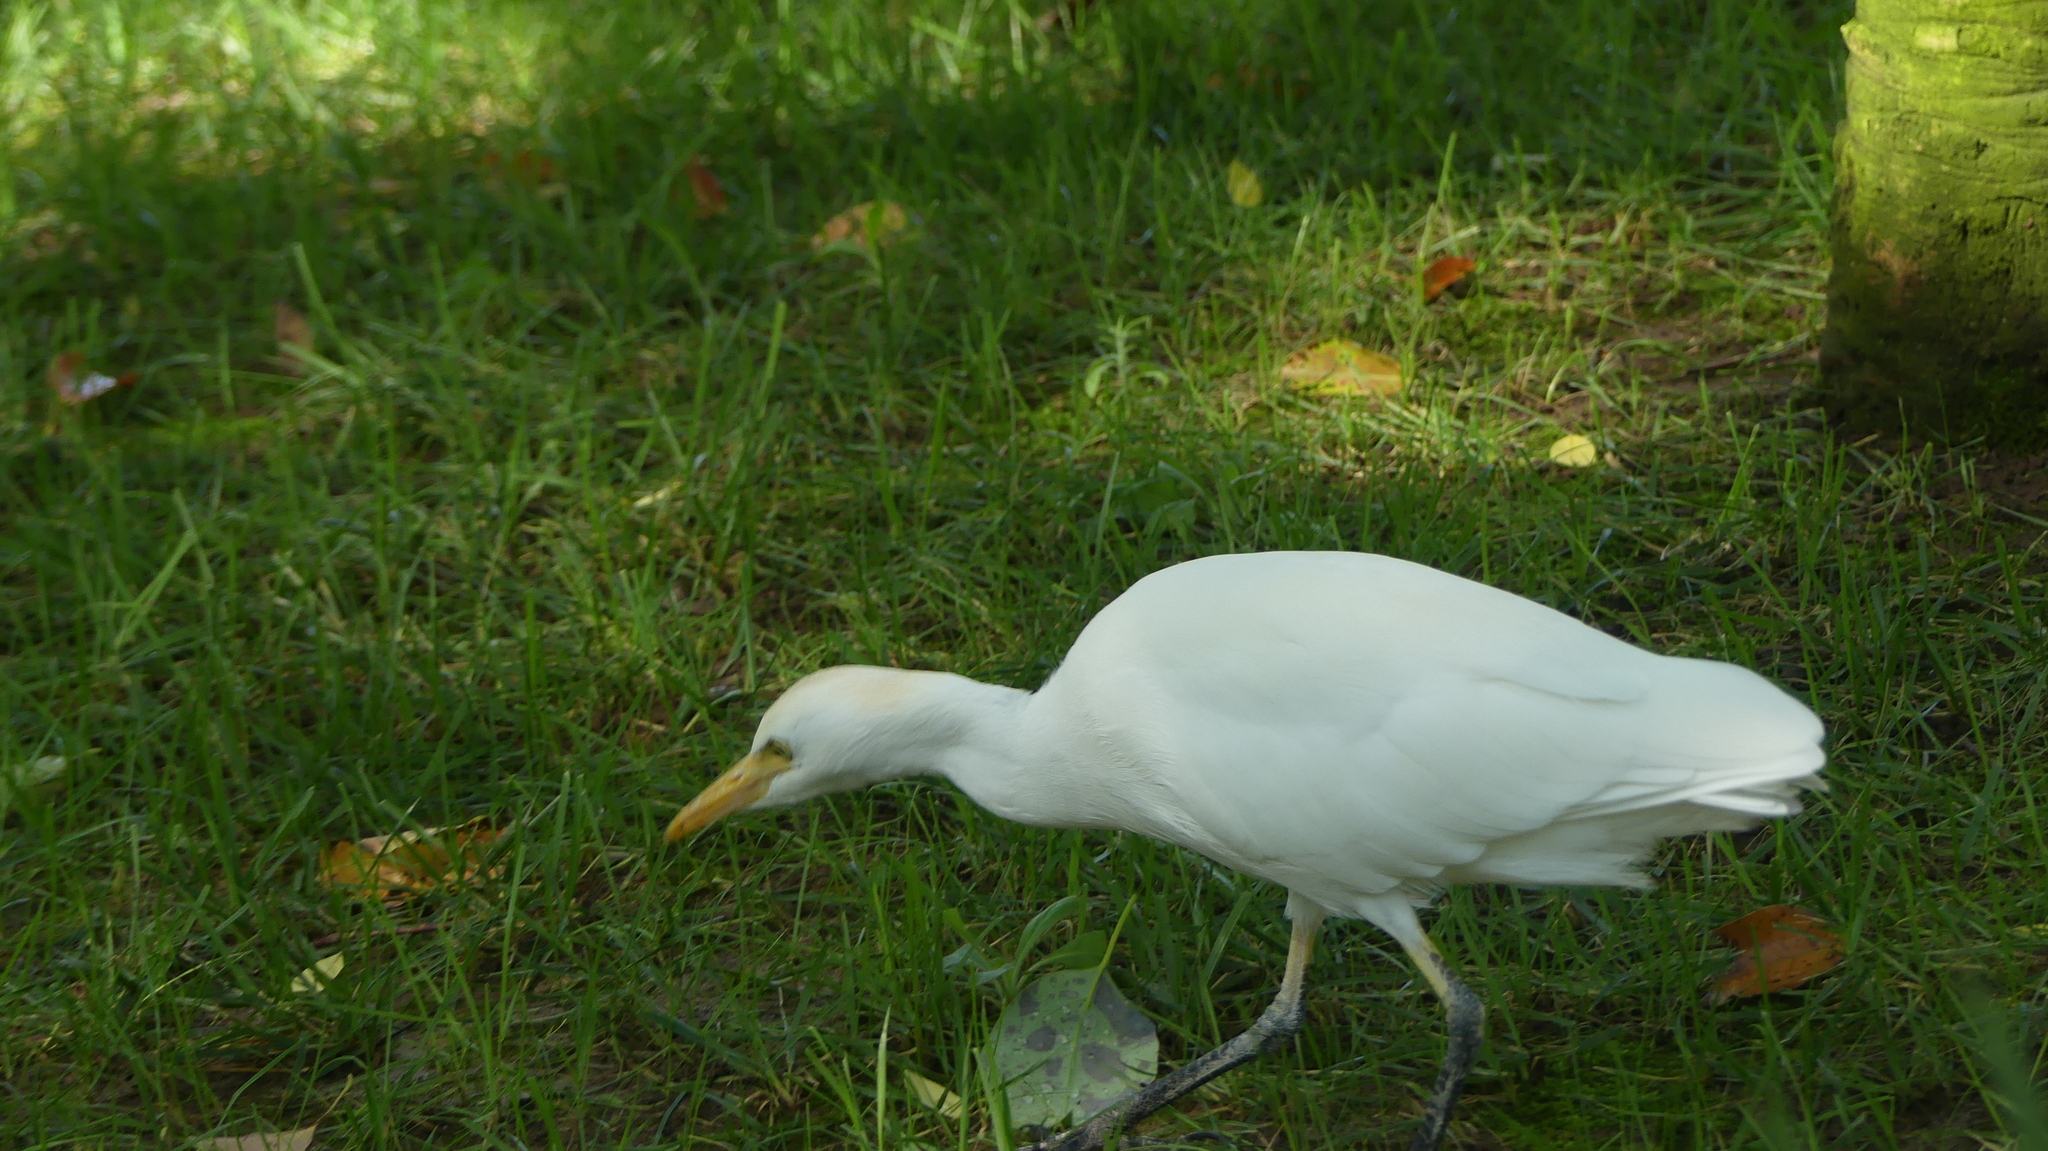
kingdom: Animalia
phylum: Chordata
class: Aves
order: Pelecaniformes
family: Ardeidae
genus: Bubulcus
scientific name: Bubulcus ibis
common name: Cattle egret
